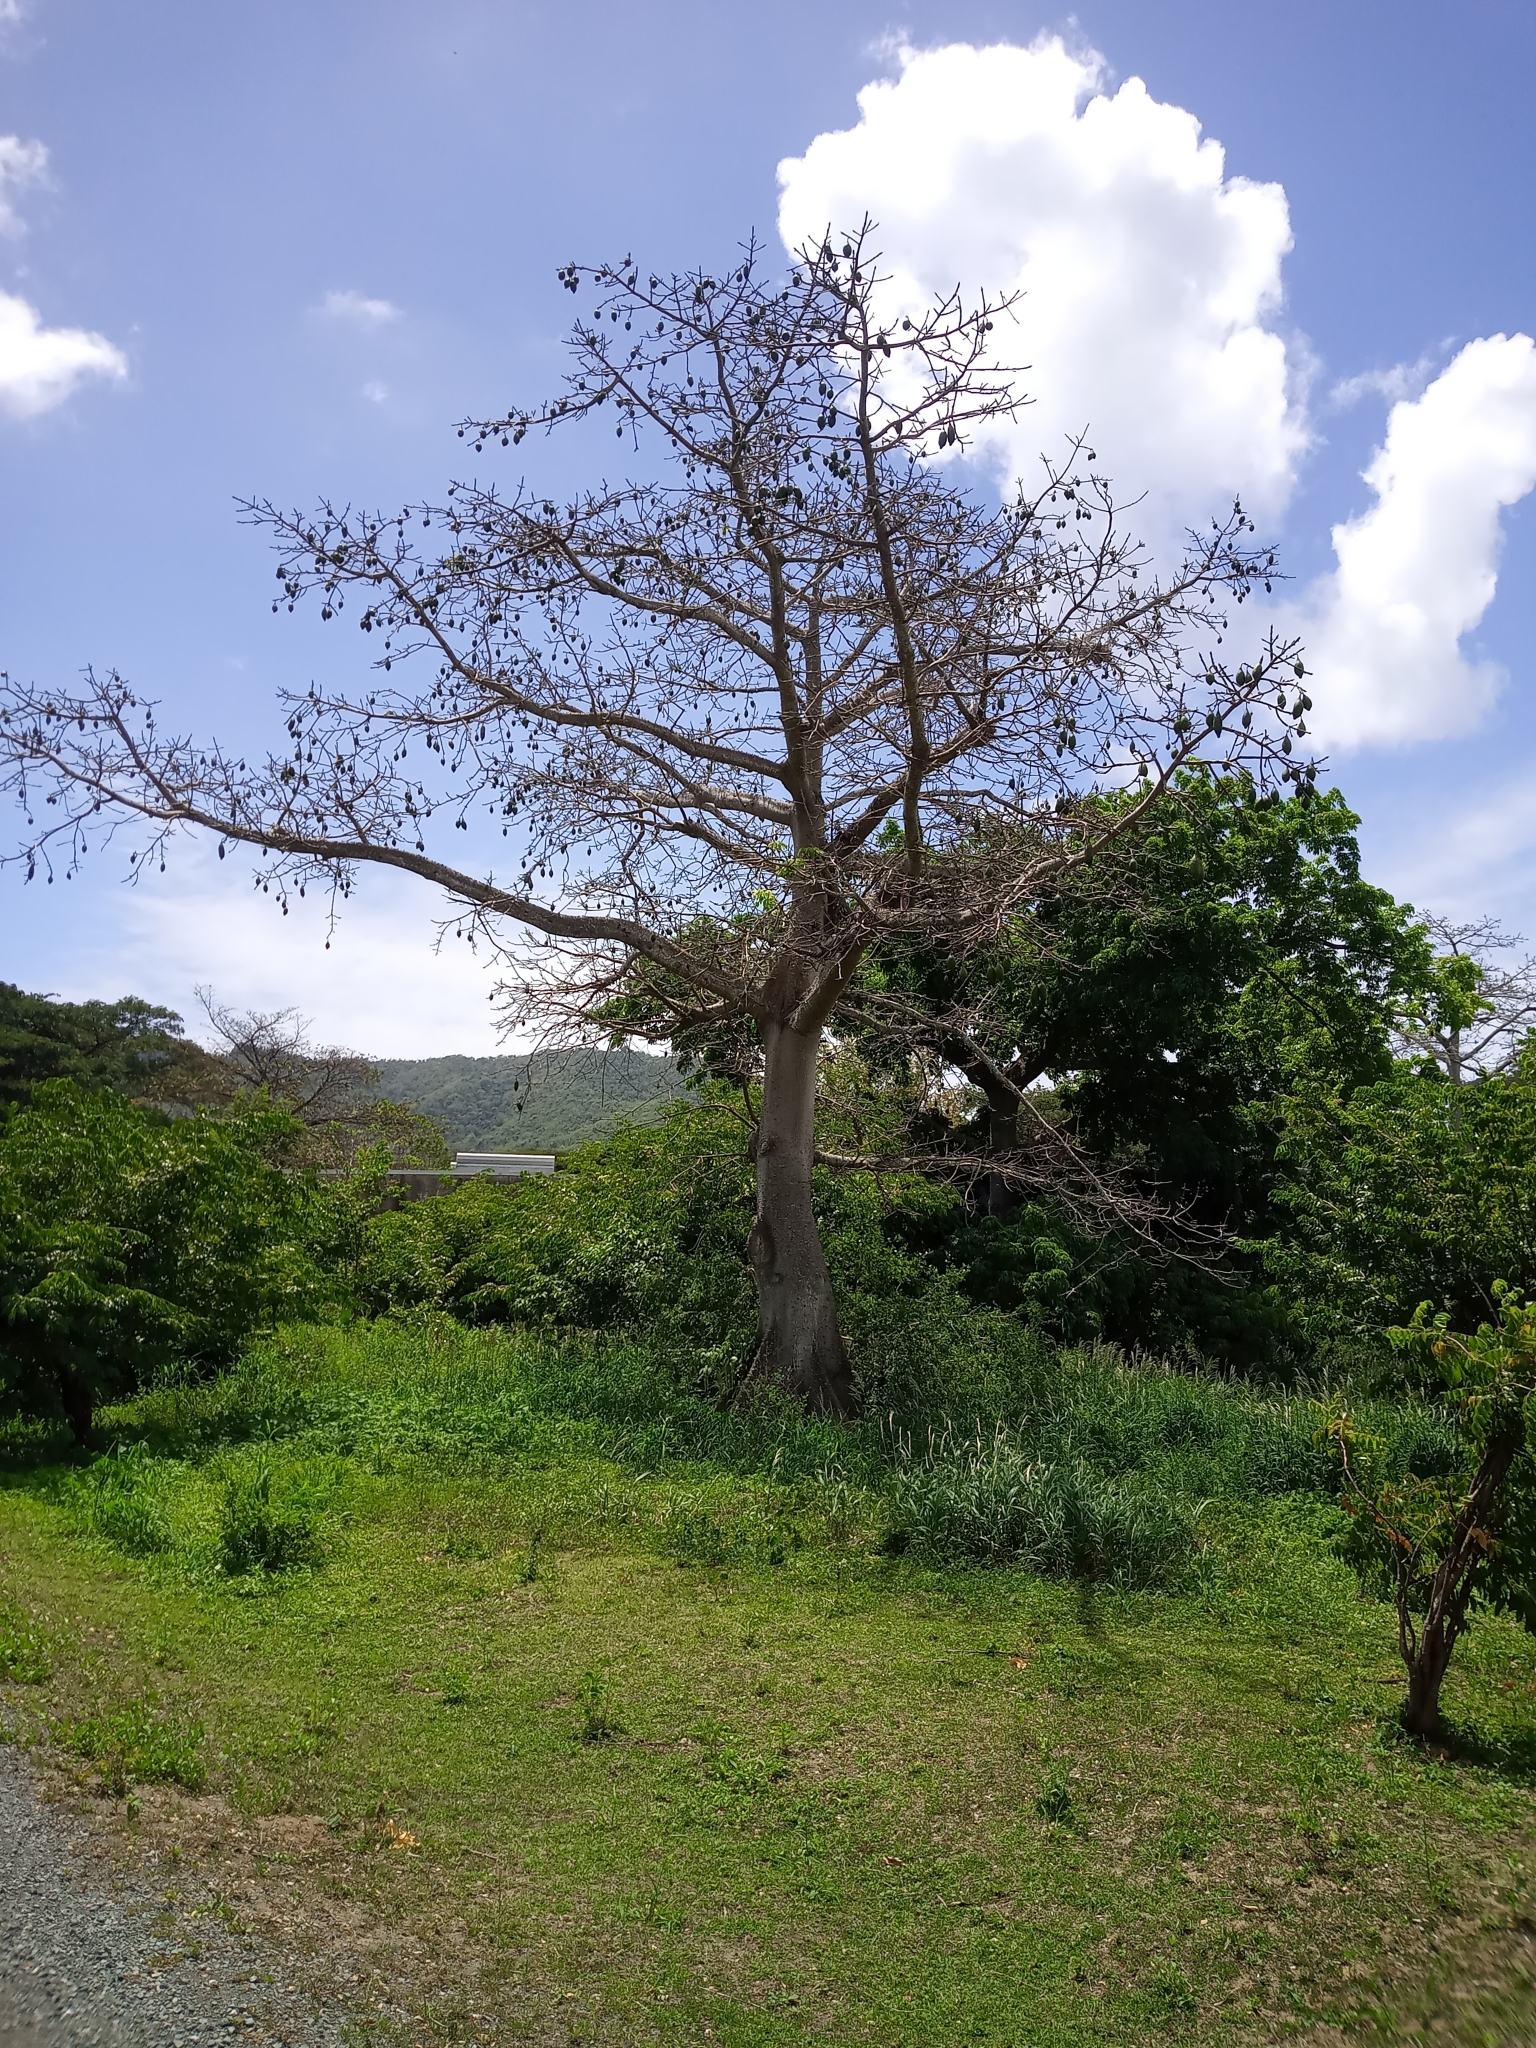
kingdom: Plantae
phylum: Tracheophyta
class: Magnoliopsida
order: Malvales
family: Malvaceae
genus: Ceiba
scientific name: Ceiba pentandra
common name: Kapok
